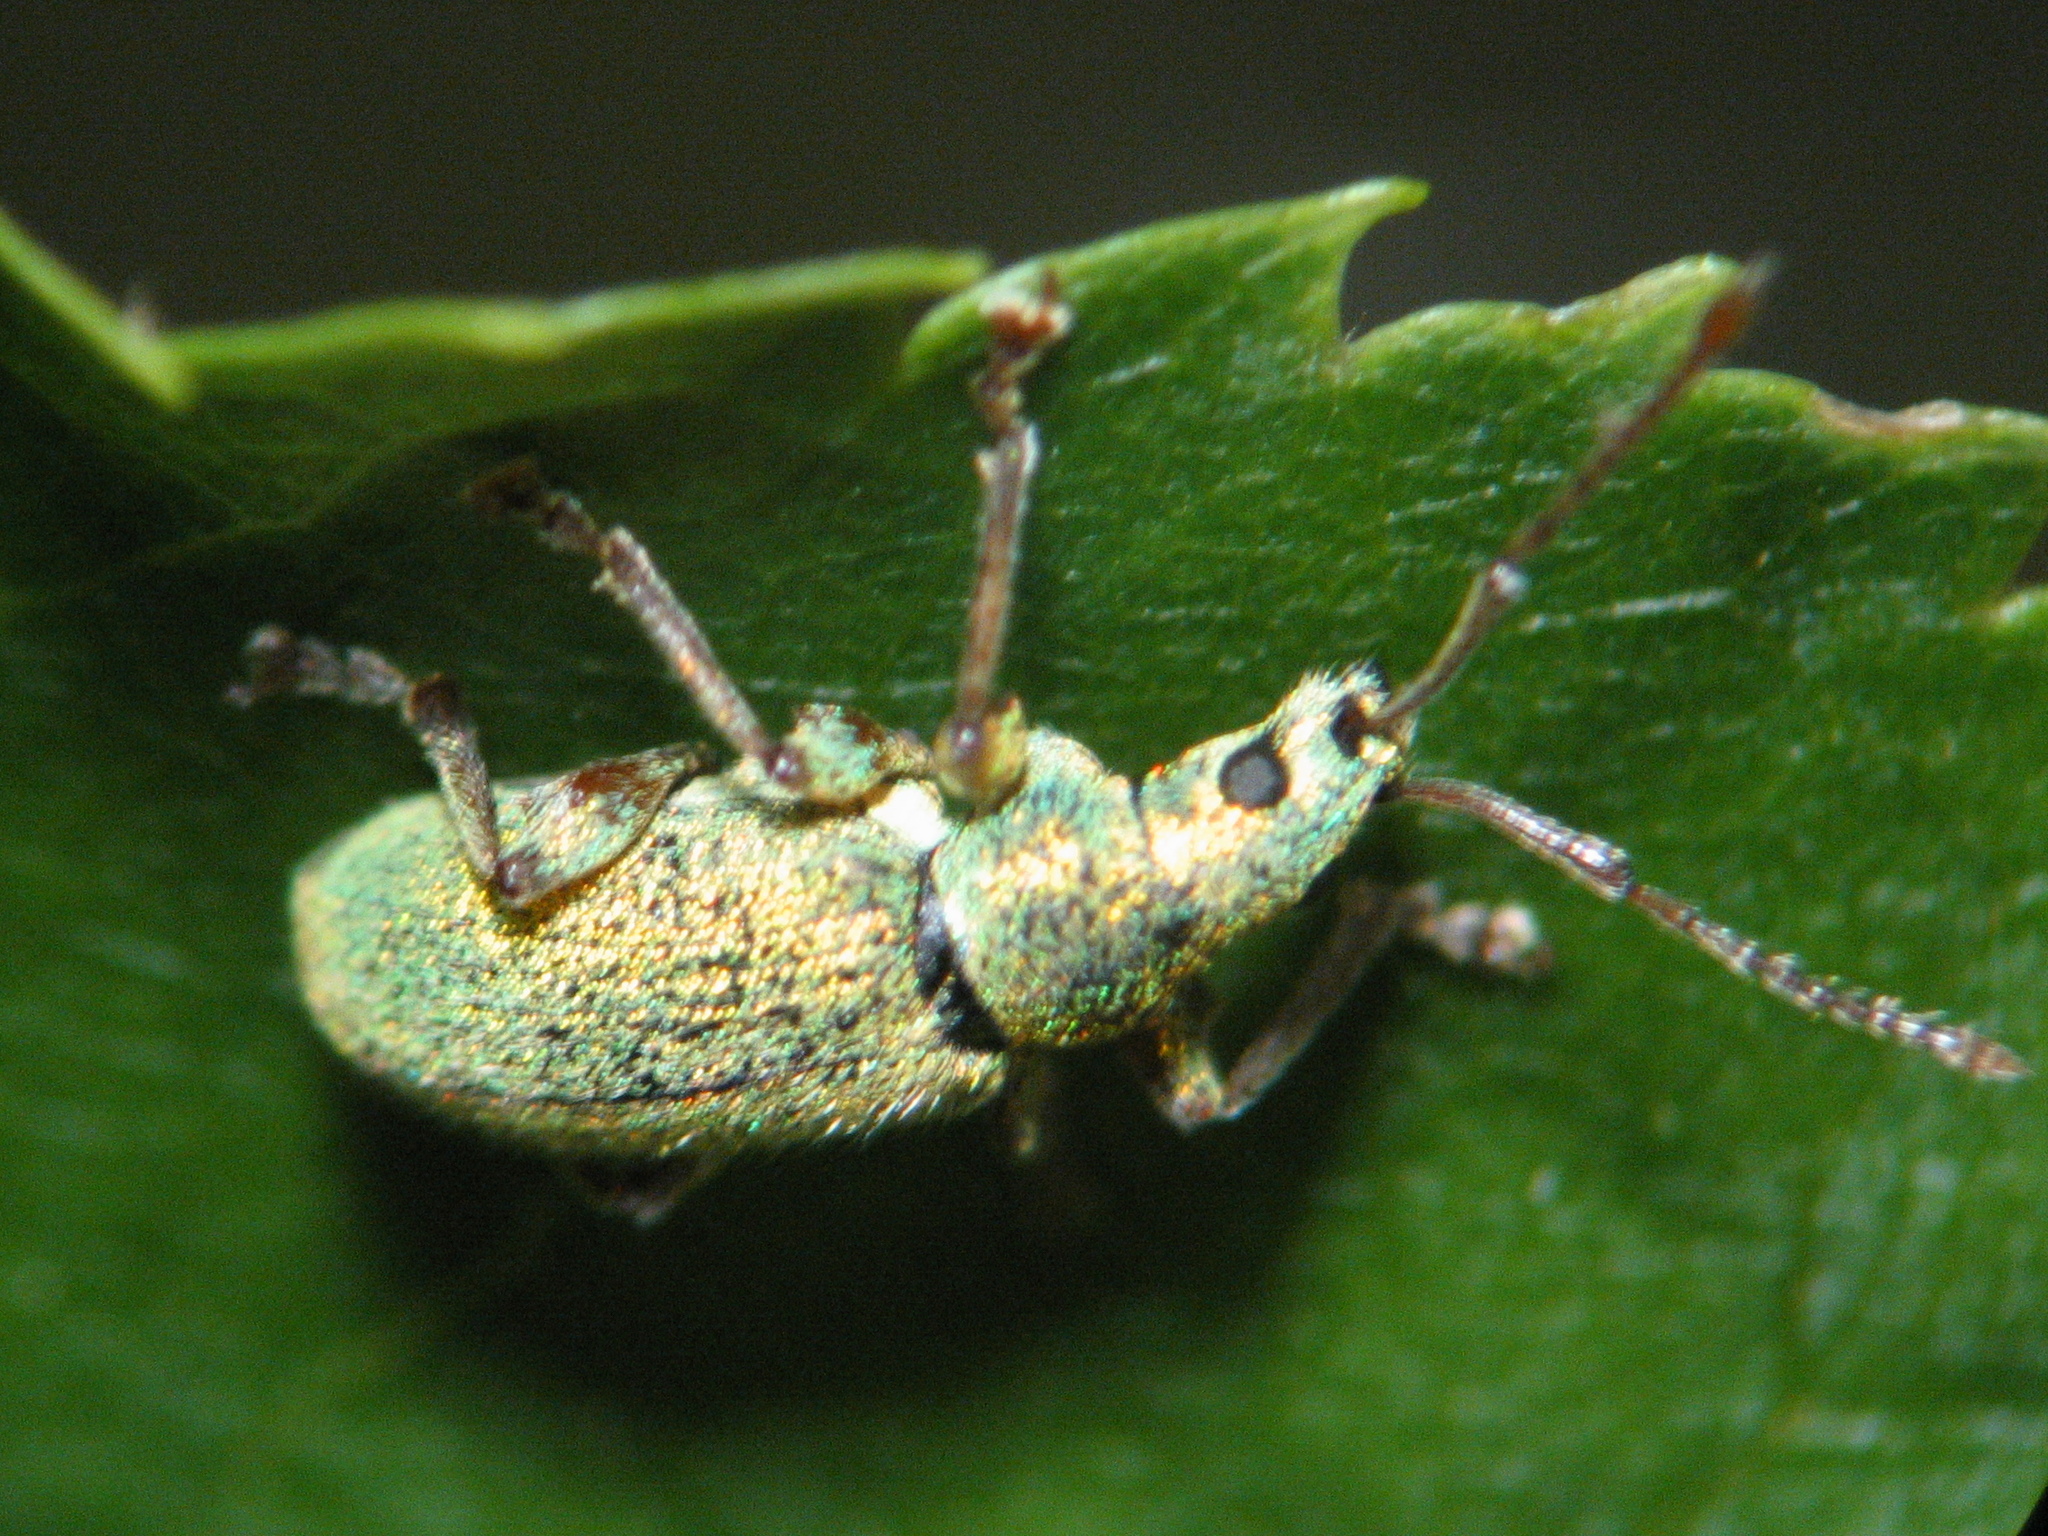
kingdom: Animalia
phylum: Arthropoda
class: Insecta
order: Coleoptera
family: Curculionidae
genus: Phyllobius
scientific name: Phyllobius argentatus
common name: Silver-green leaf weevil
